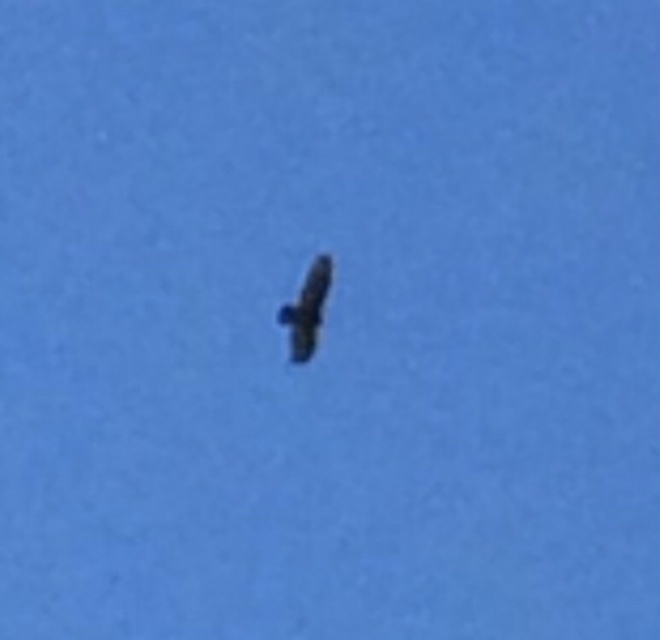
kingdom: Animalia
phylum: Chordata
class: Aves
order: Accipitriformes
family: Cathartidae
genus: Cathartes
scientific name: Cathartes aura
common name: Turkey vulture
